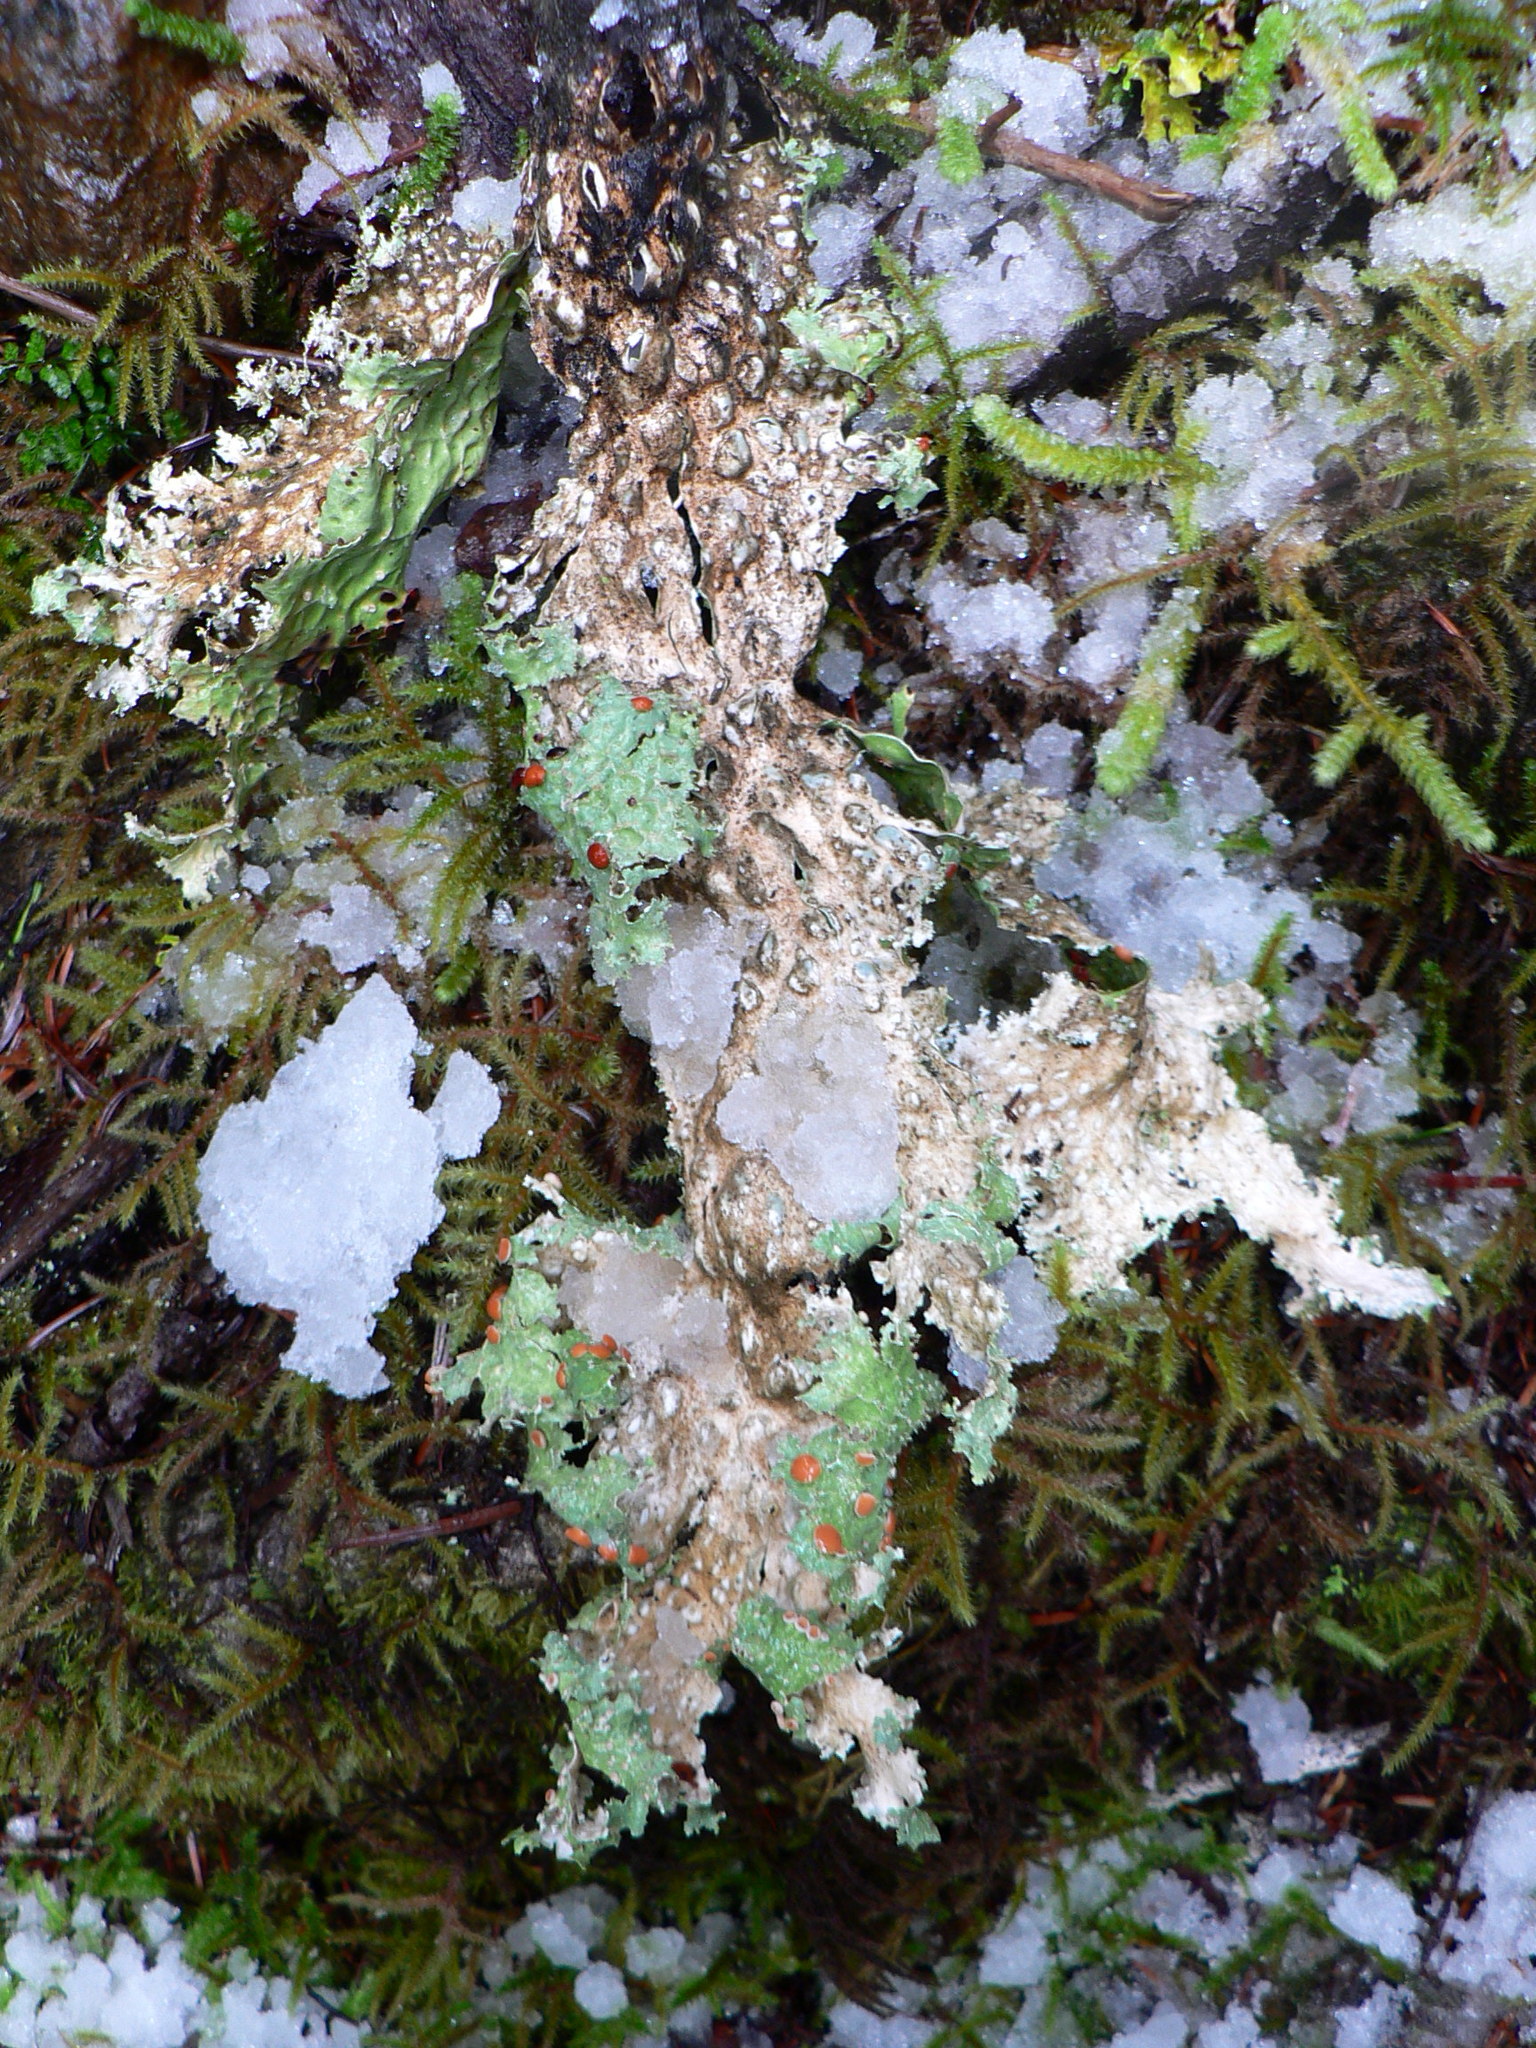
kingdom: Fungi
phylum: Ascomycota
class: Lecanoromycetes
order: Peltigerales
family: Lobariaceae
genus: Lobaria
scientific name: Lobaria oregana
